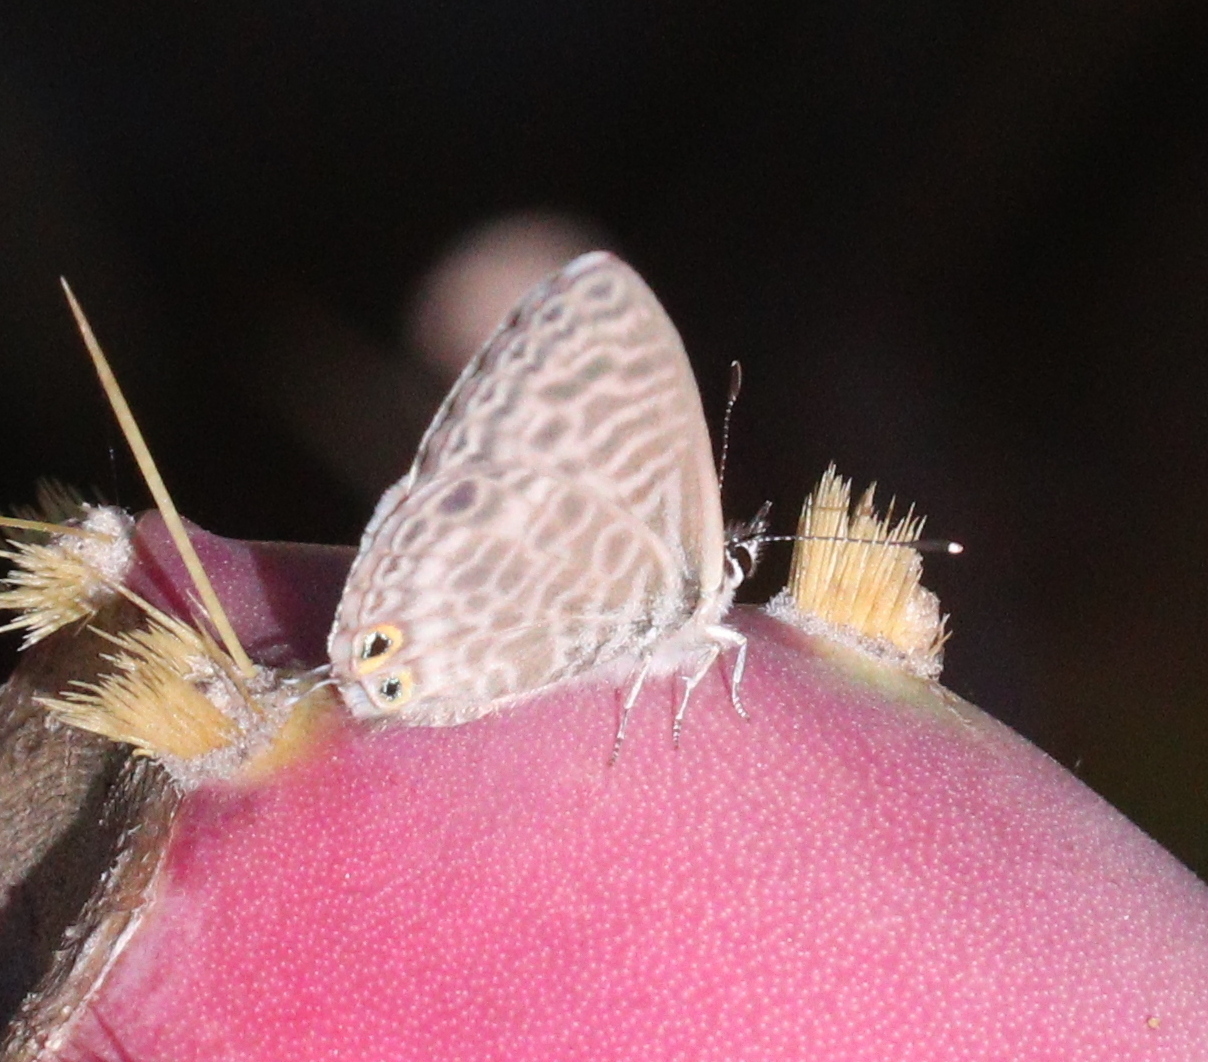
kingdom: Animalia
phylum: Arthropoda
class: Insecta
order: Lepidoptera
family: Lycaenidae
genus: Leptotes
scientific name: Leptotes pirithous
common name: Lang's short-tailed blue
